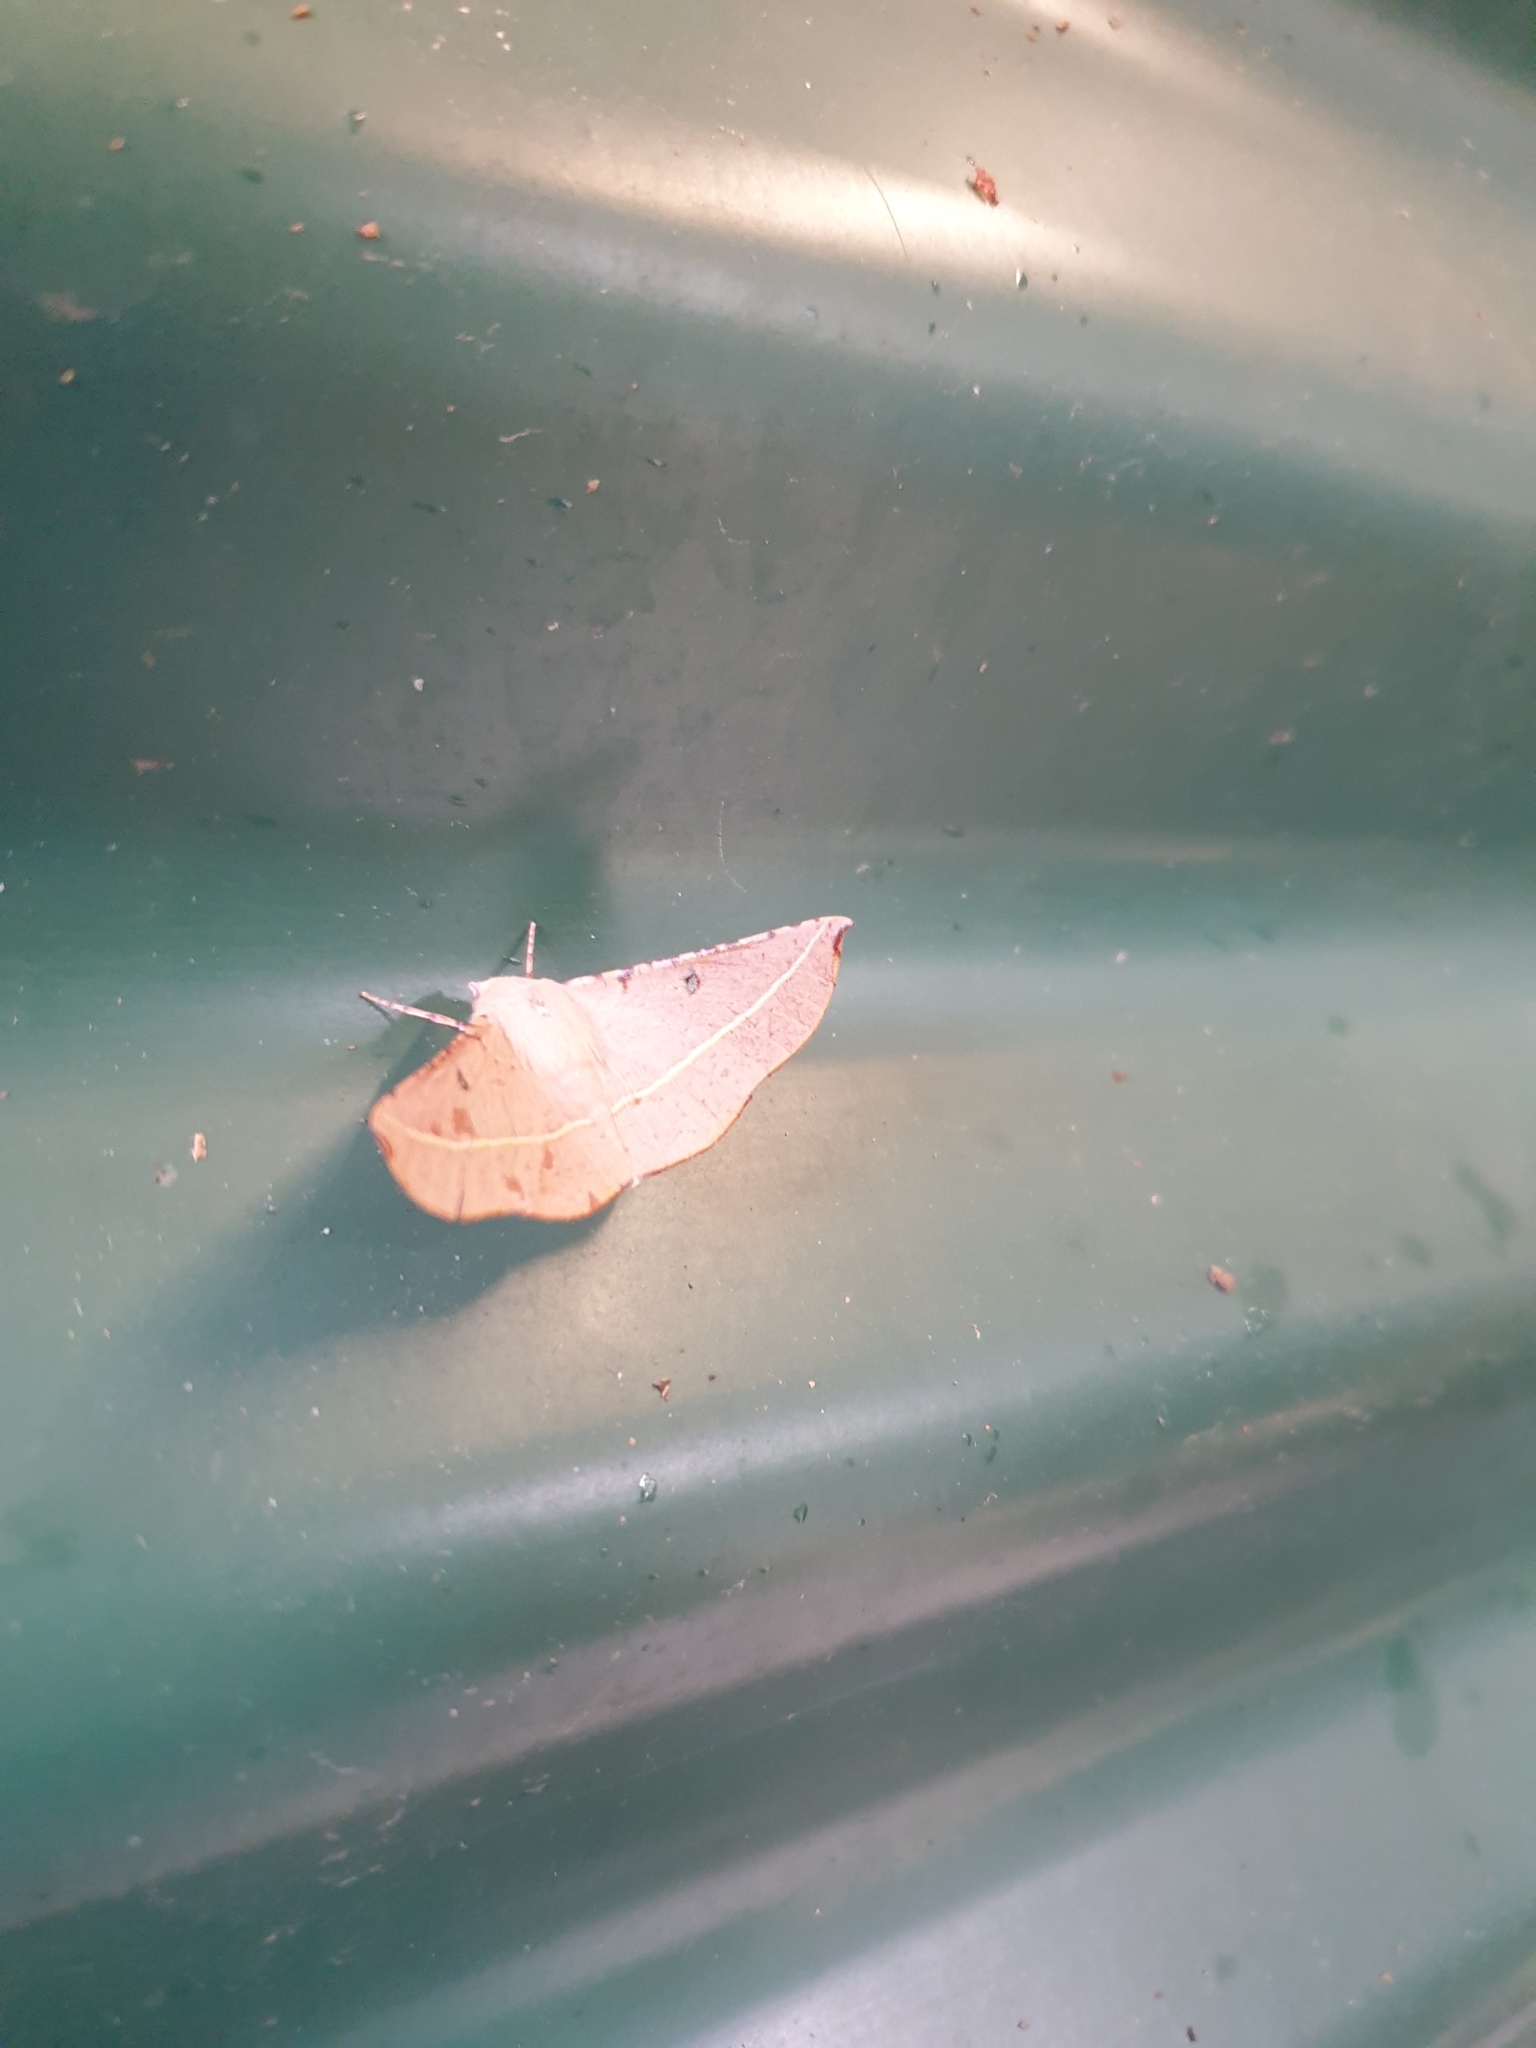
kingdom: Animalia
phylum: Arthropoda
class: Insecta
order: Lepidoptera
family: Geometridae
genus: Oenochroma
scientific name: Oenochroma pallida
